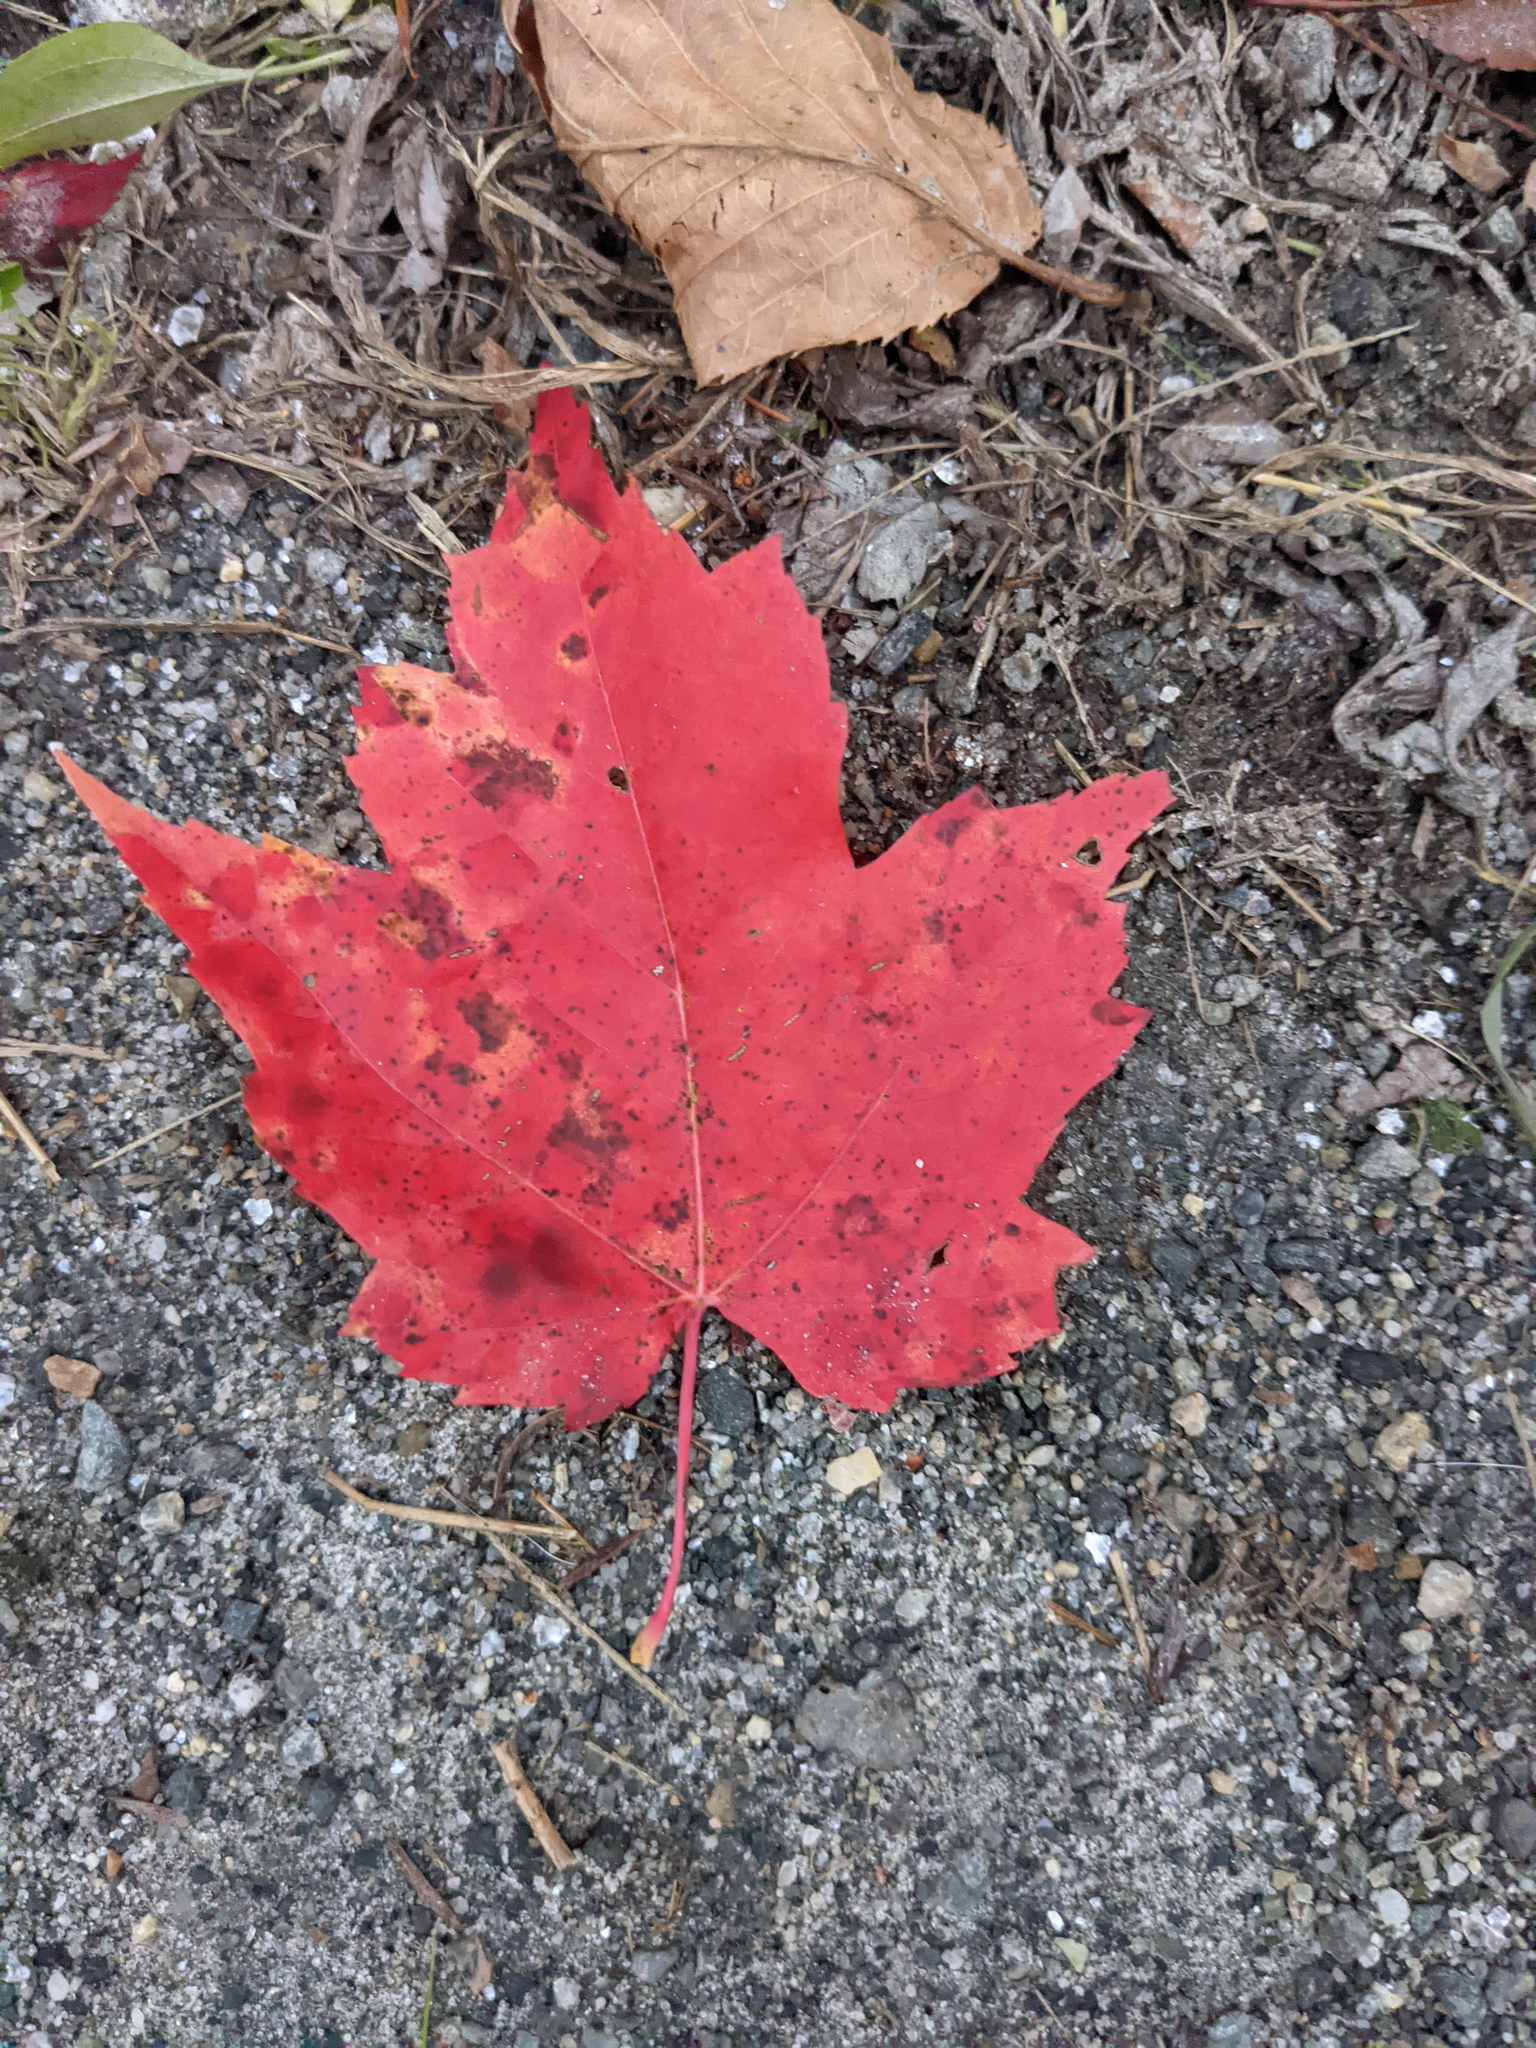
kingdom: Plantae
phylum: Tracheophyta
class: Magnoliopsida
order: Sapindales
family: Sapindaceae
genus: Acer
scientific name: Acer rubrum
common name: Red maple
